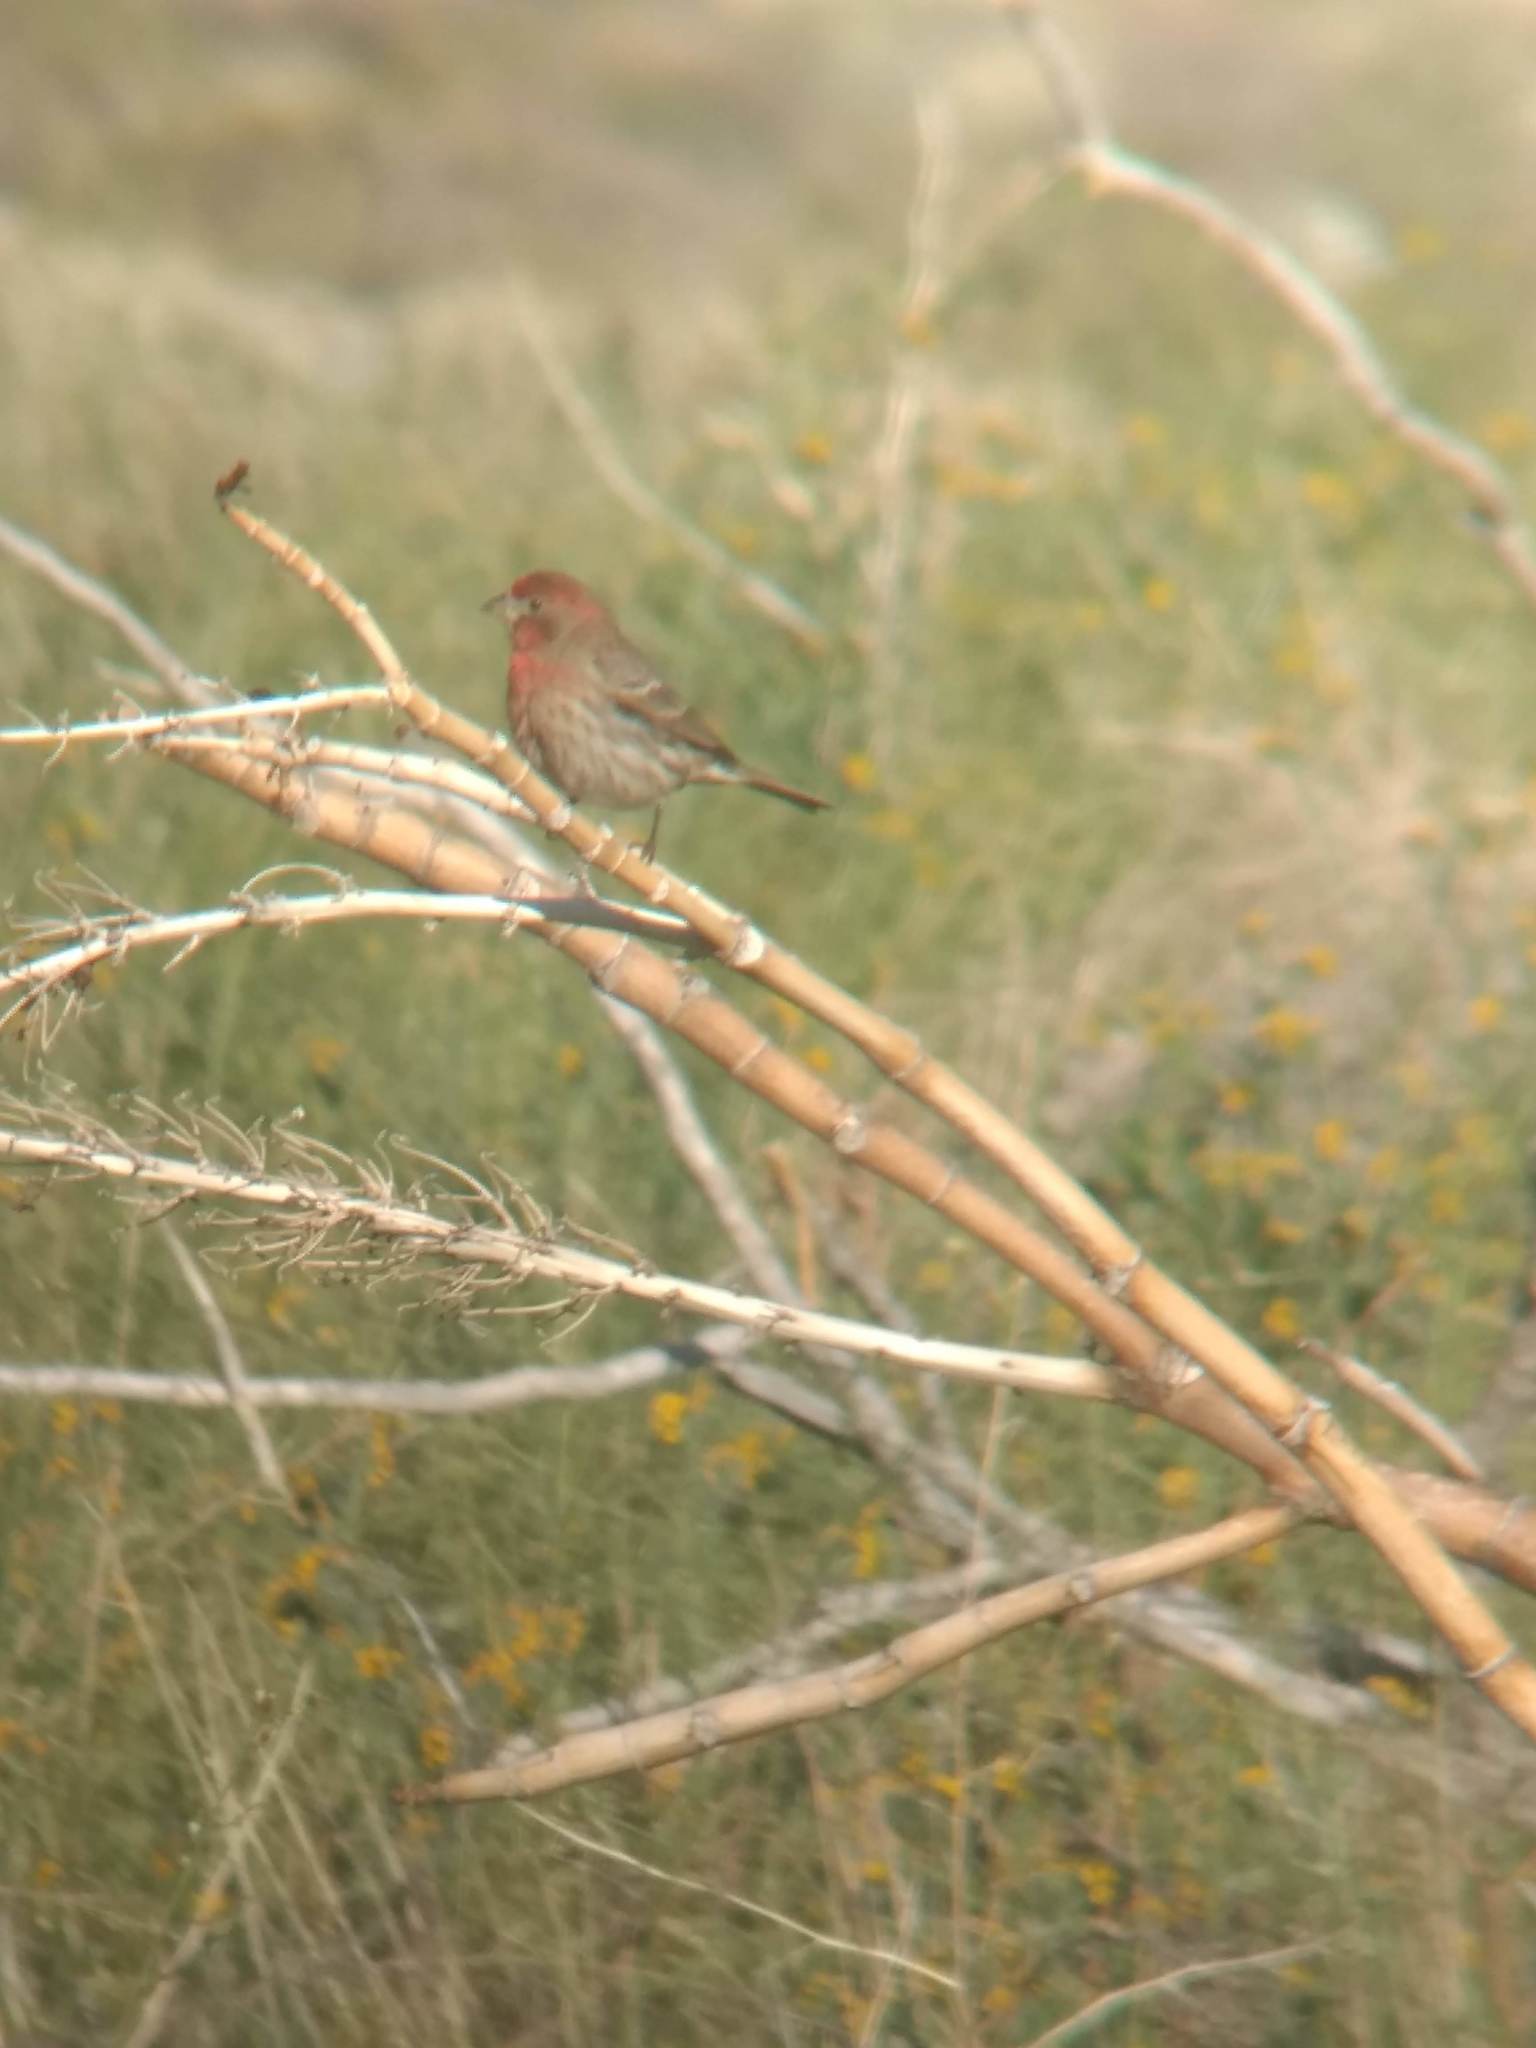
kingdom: Animalia
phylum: Chordata
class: Aves
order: Passeriformes
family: Fringillidae
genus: Haemorhous
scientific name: Haemorhous mexicanus
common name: House finch
